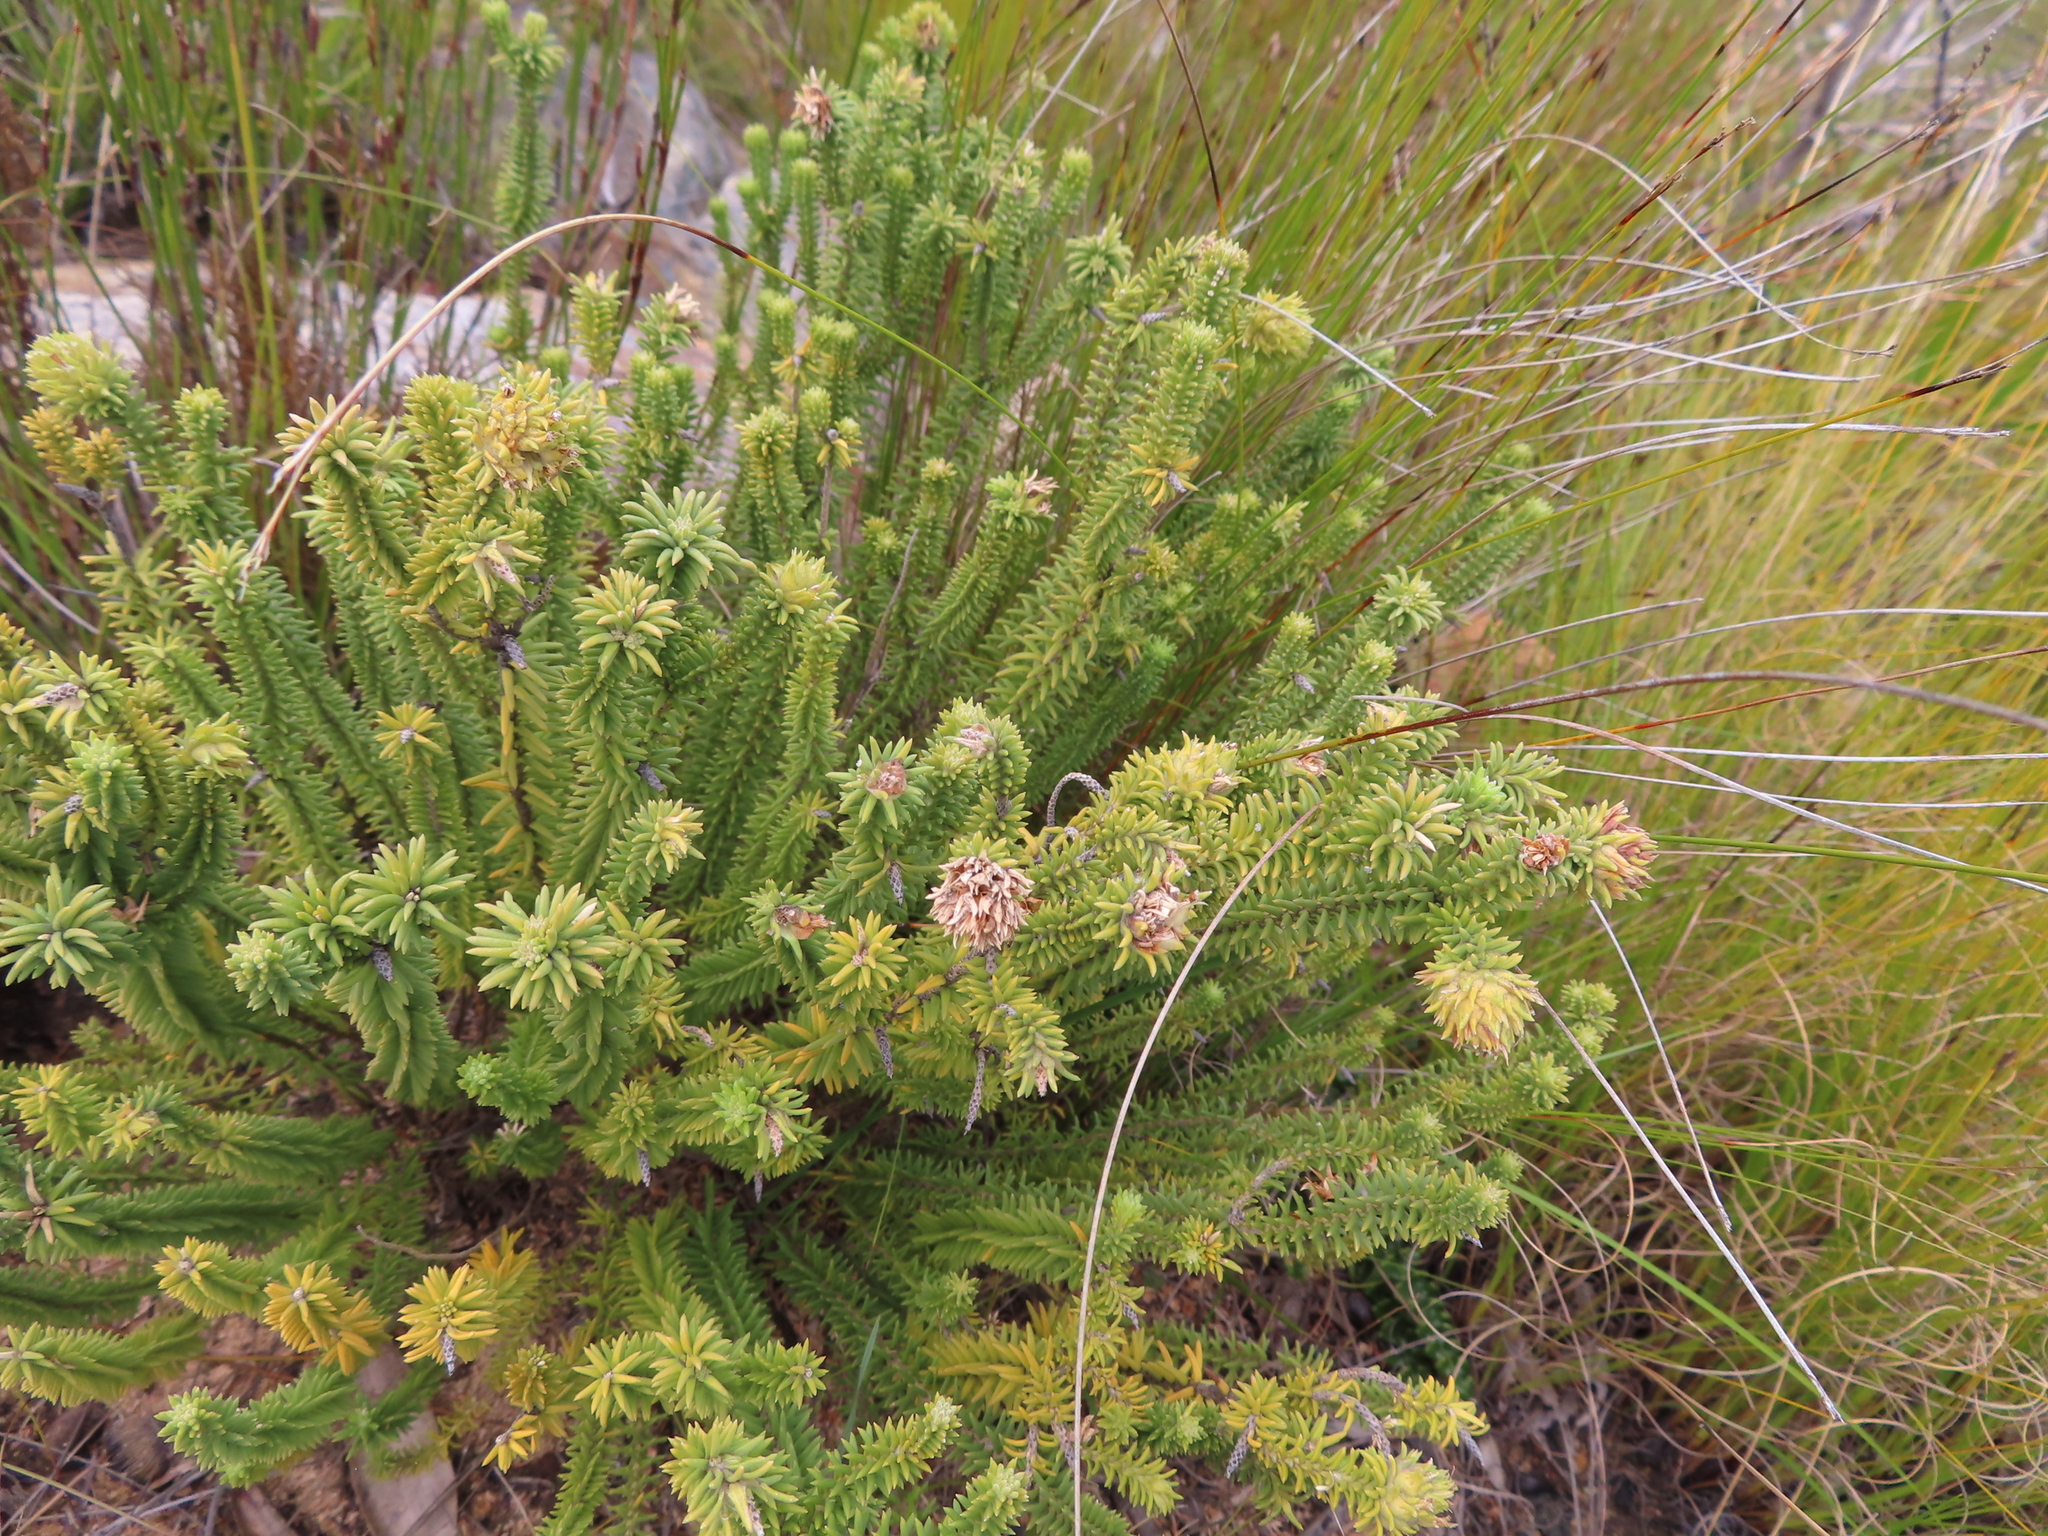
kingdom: Plantae
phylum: Tracheophyta
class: Magnoliopsida
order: Lamiales
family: Stilbaceae
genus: Campylostachys
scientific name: Campylostachys cernua
